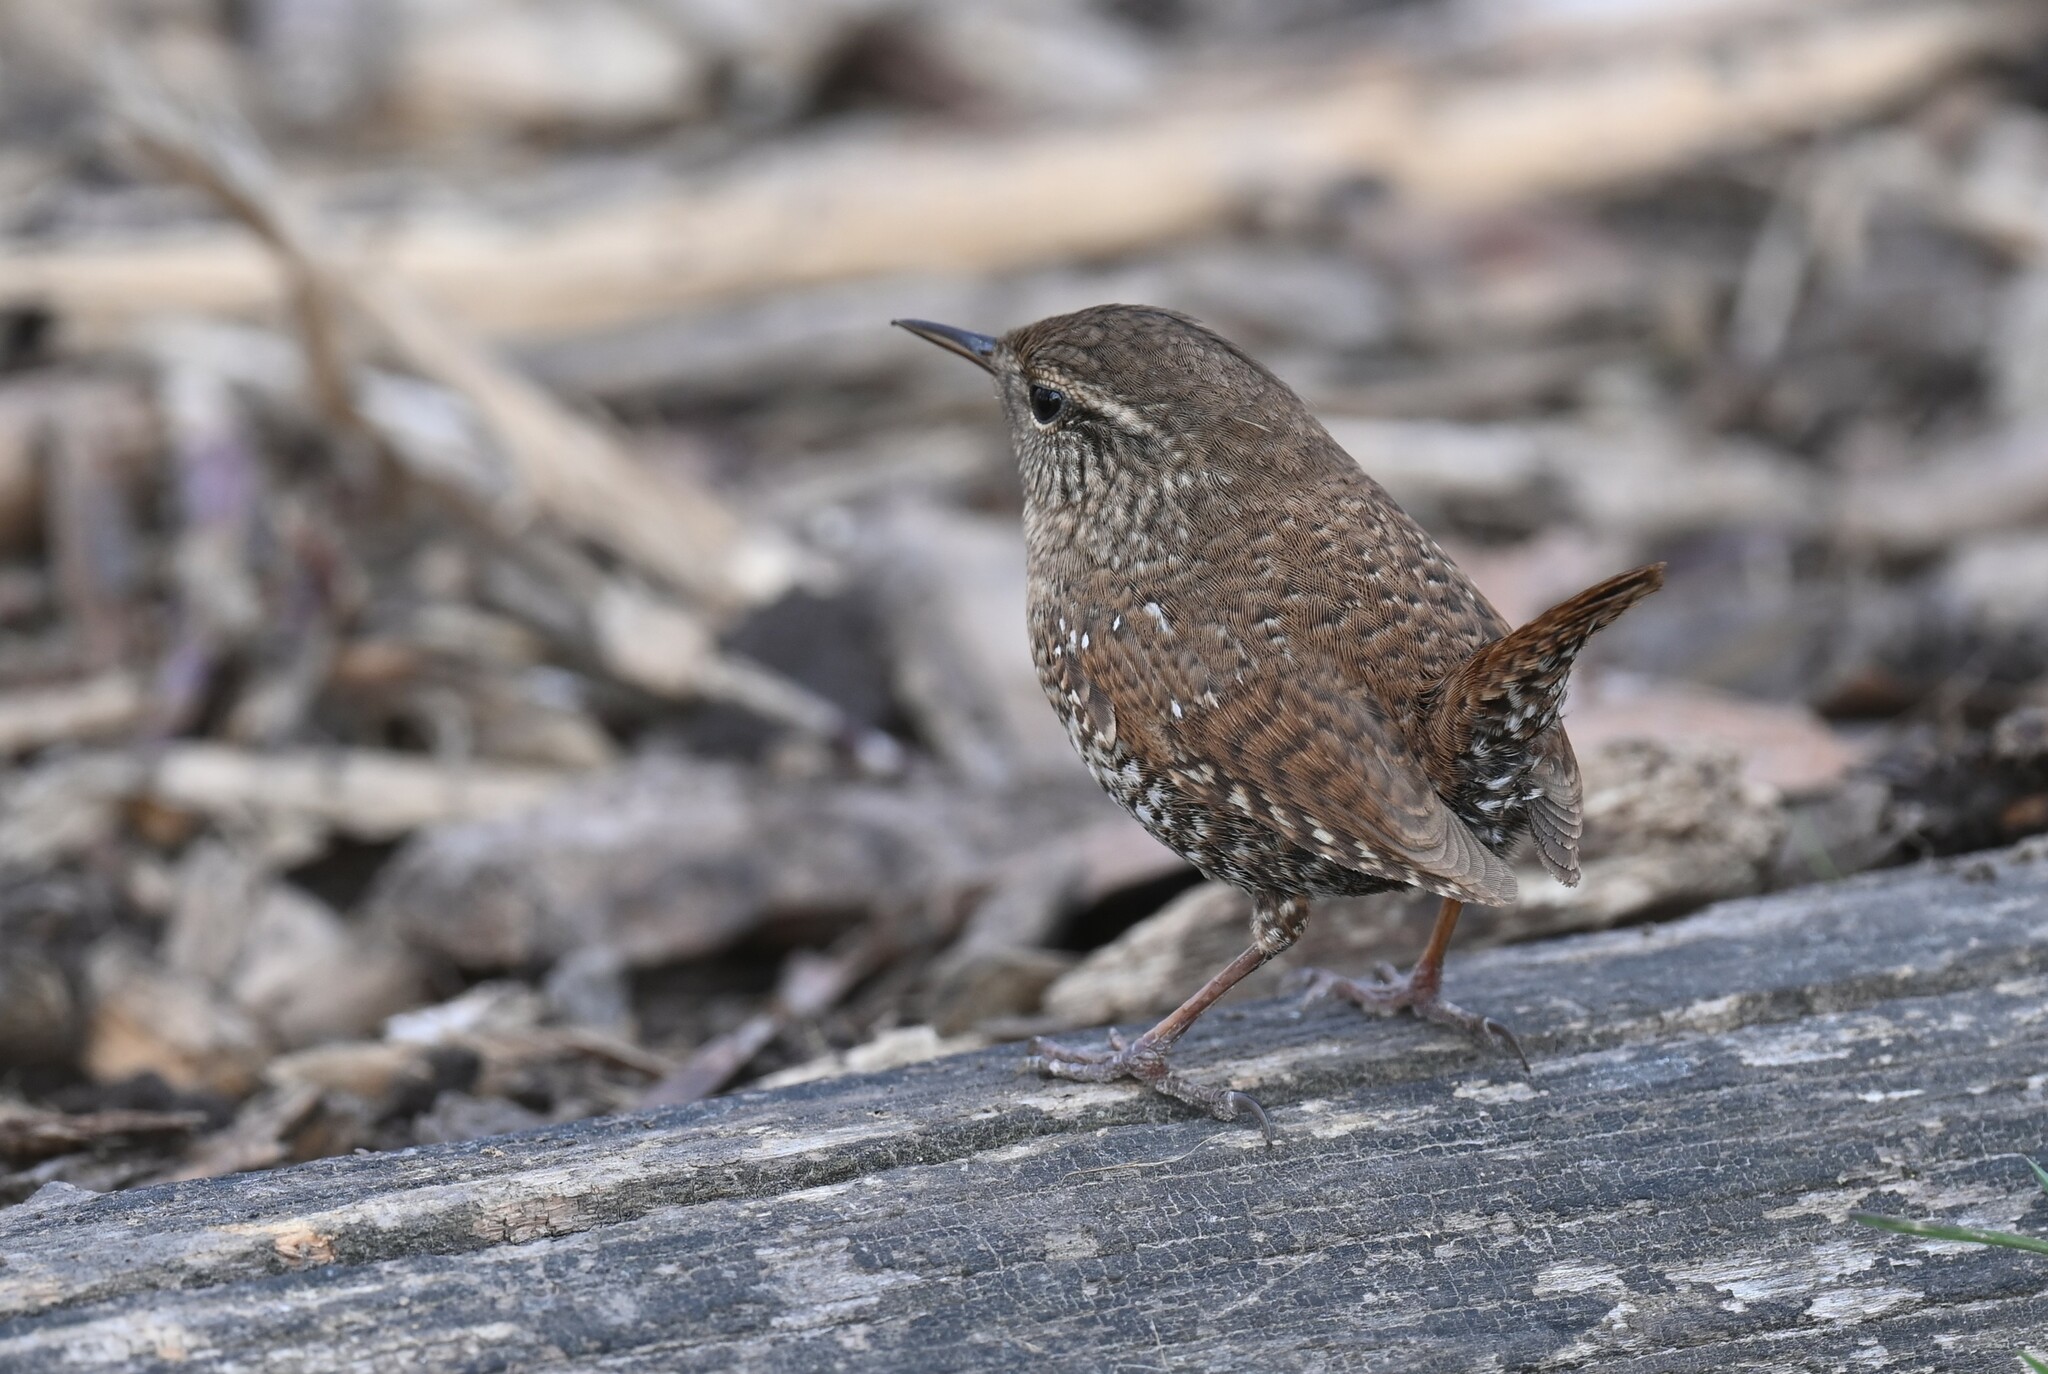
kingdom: Animalia
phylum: Chordata
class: Aves
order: Passeriformes
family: Troglodytidae
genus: Troglodytes
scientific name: Troglodytes hiemalis
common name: Winter wren
